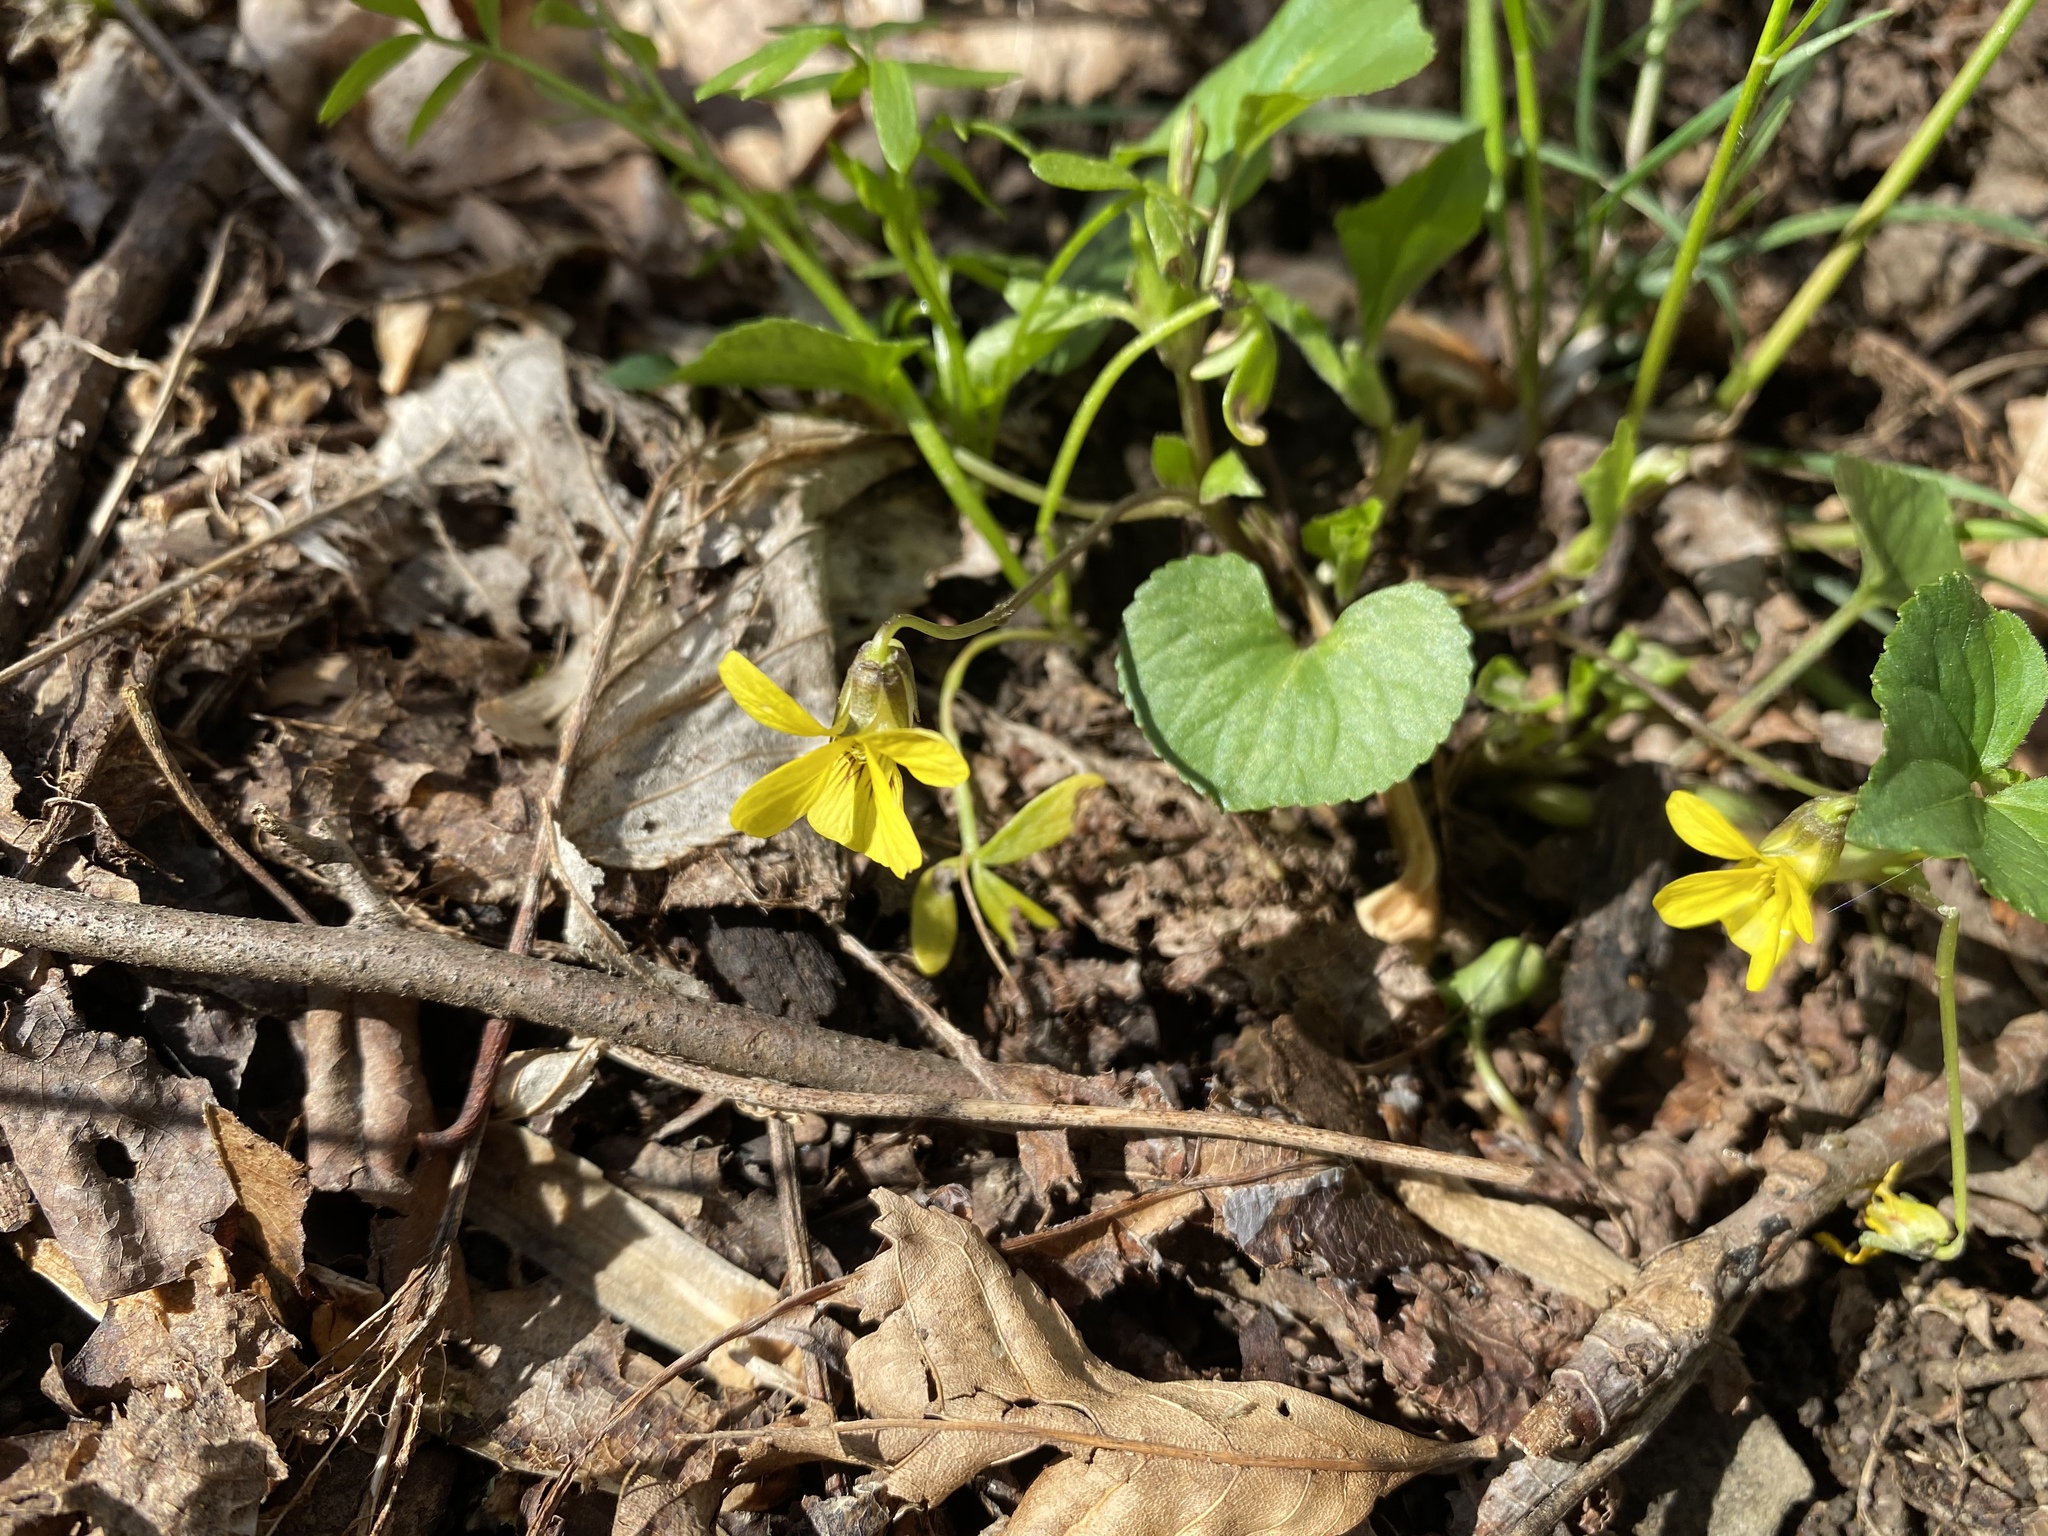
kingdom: Plantae
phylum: Tracheophyta
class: Magnoliopsida
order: Malpighiales
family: Violaceae
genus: Viola
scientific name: Viola eriocarpa
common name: Smooth yellow violet
